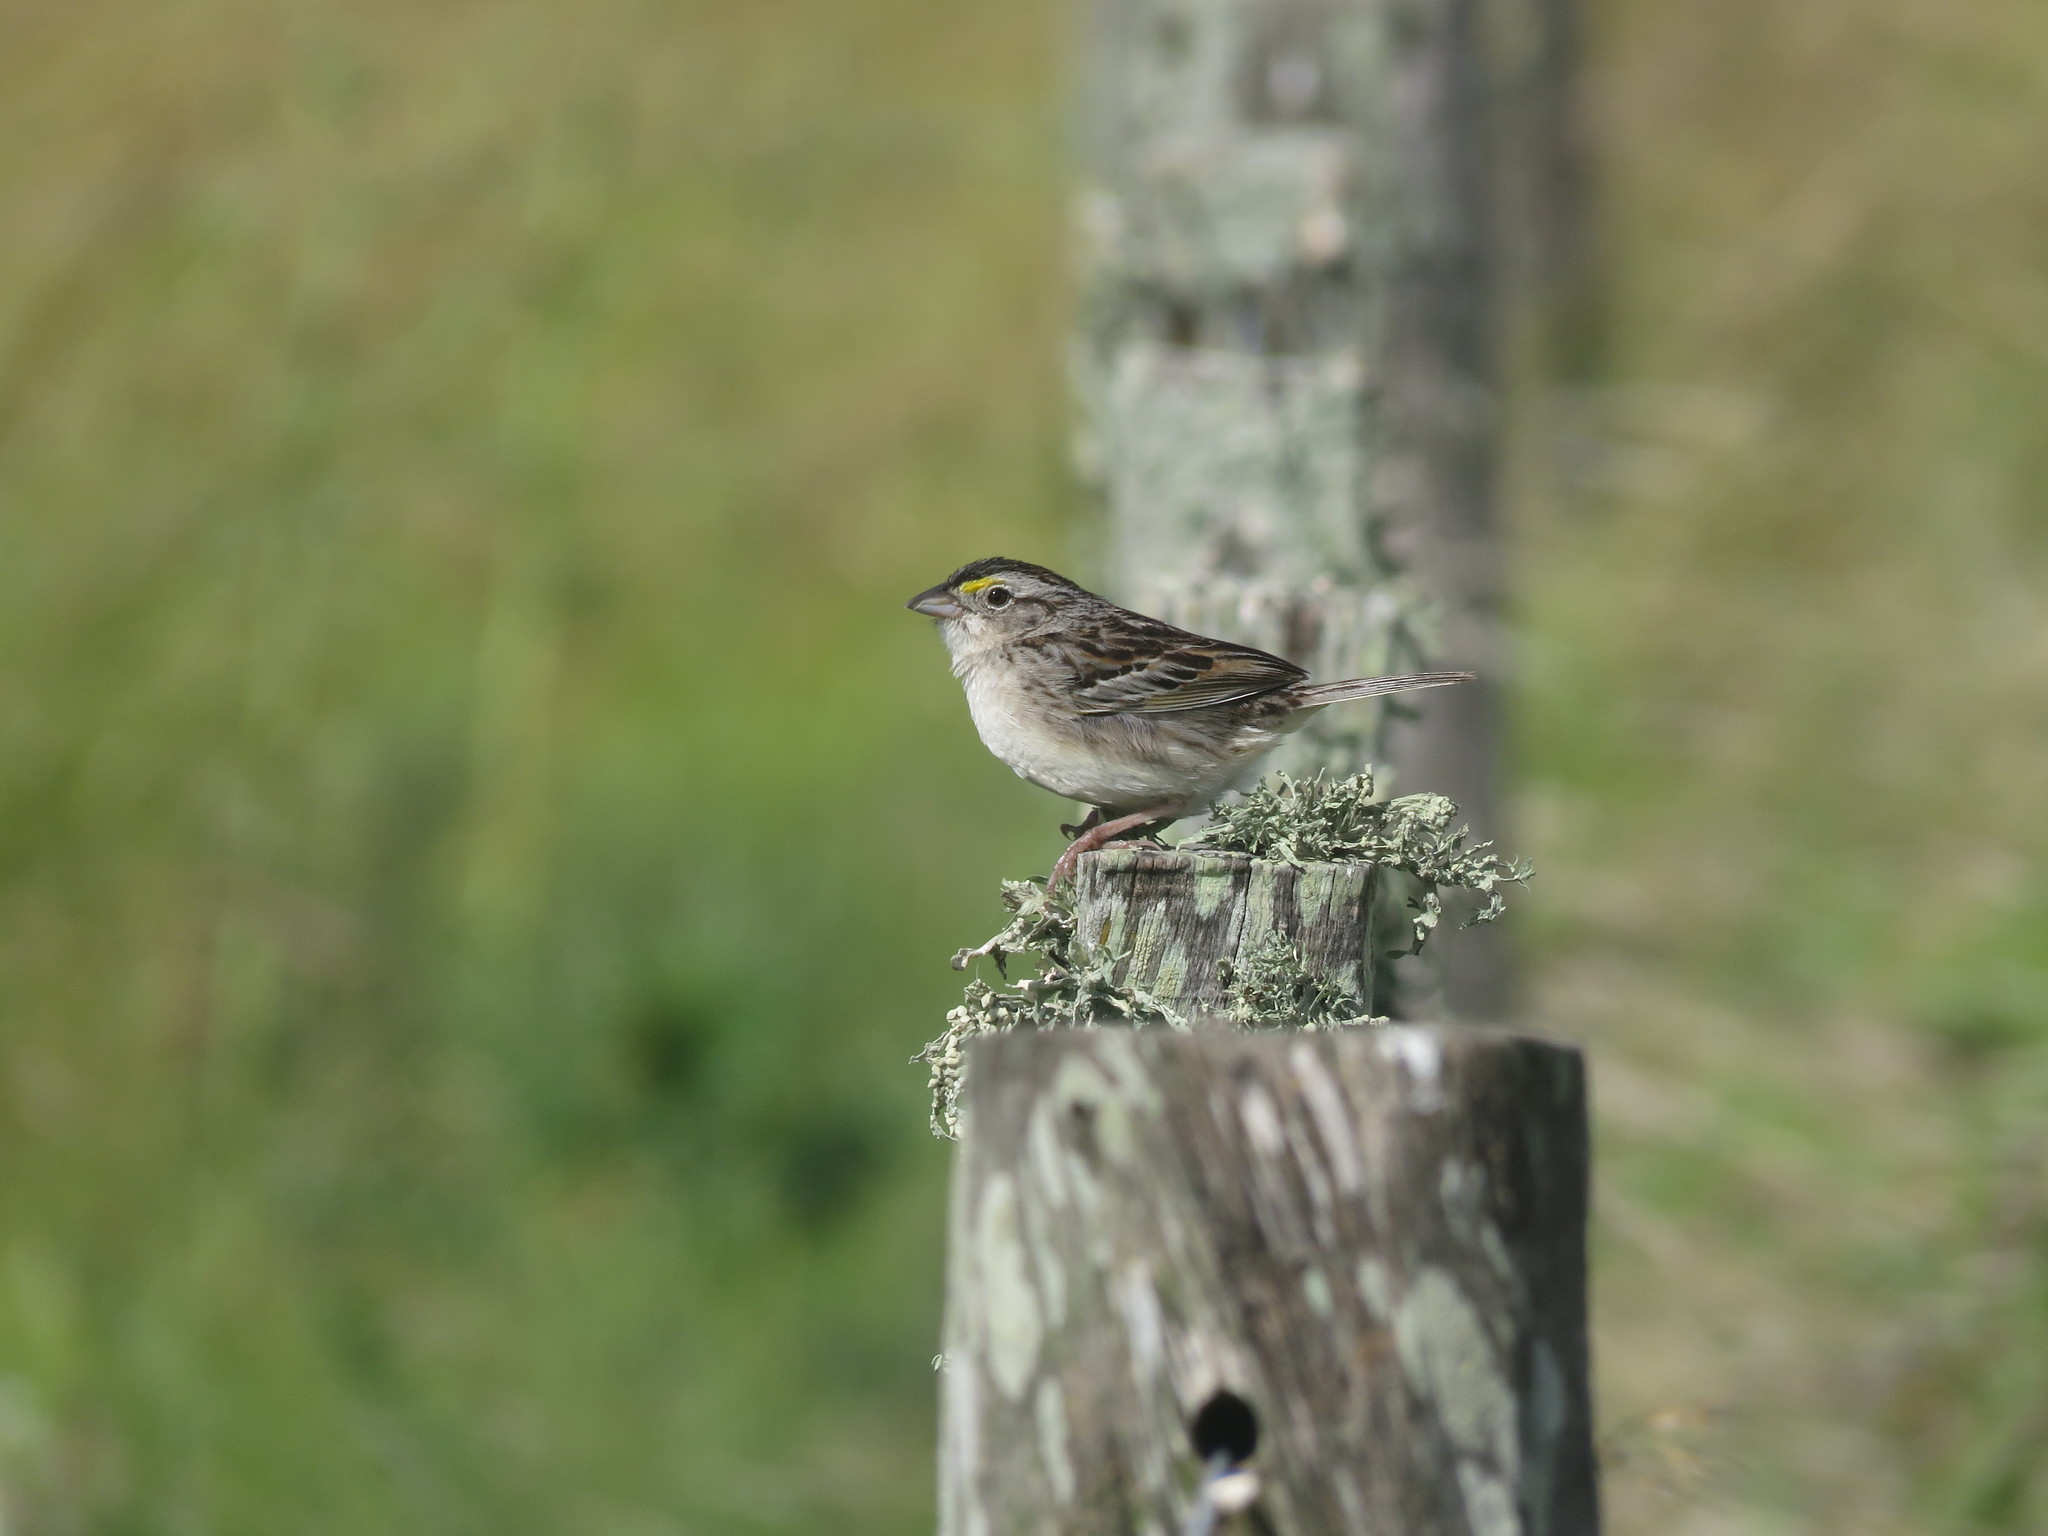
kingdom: Animalia
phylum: Chordata
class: Aves
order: Passeriformes
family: Passerellidae
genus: Ammodramus
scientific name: Ammodramus humeralis
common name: Grassland sparrow
